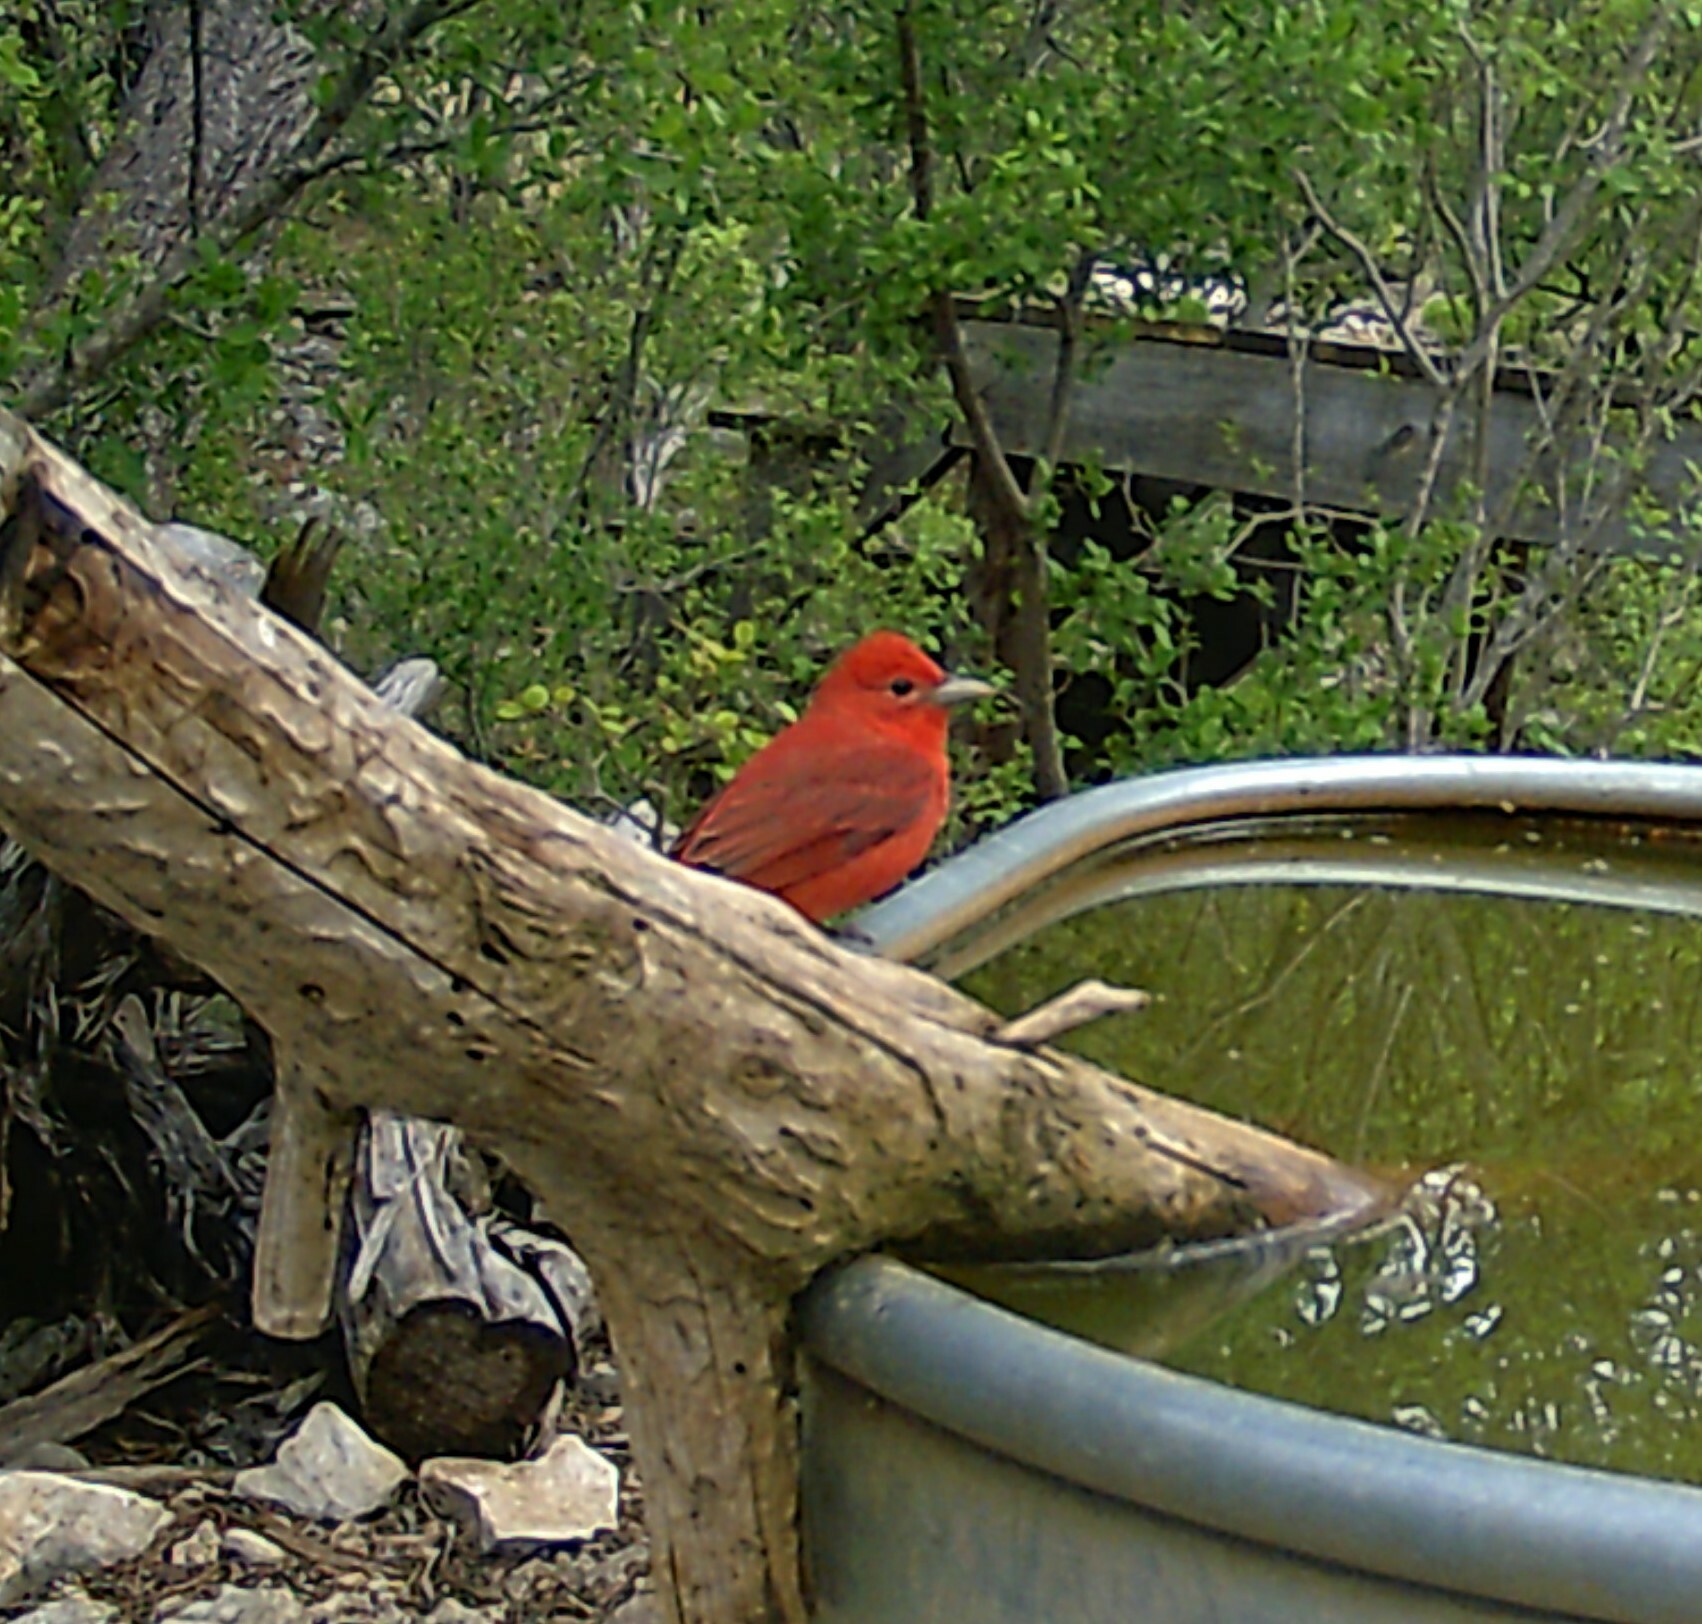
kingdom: Animalia
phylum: Chordata
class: Aves
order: Passeriformes
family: Cardinalidae
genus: Piranga
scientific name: Piranga rubra
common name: Summer tanager
